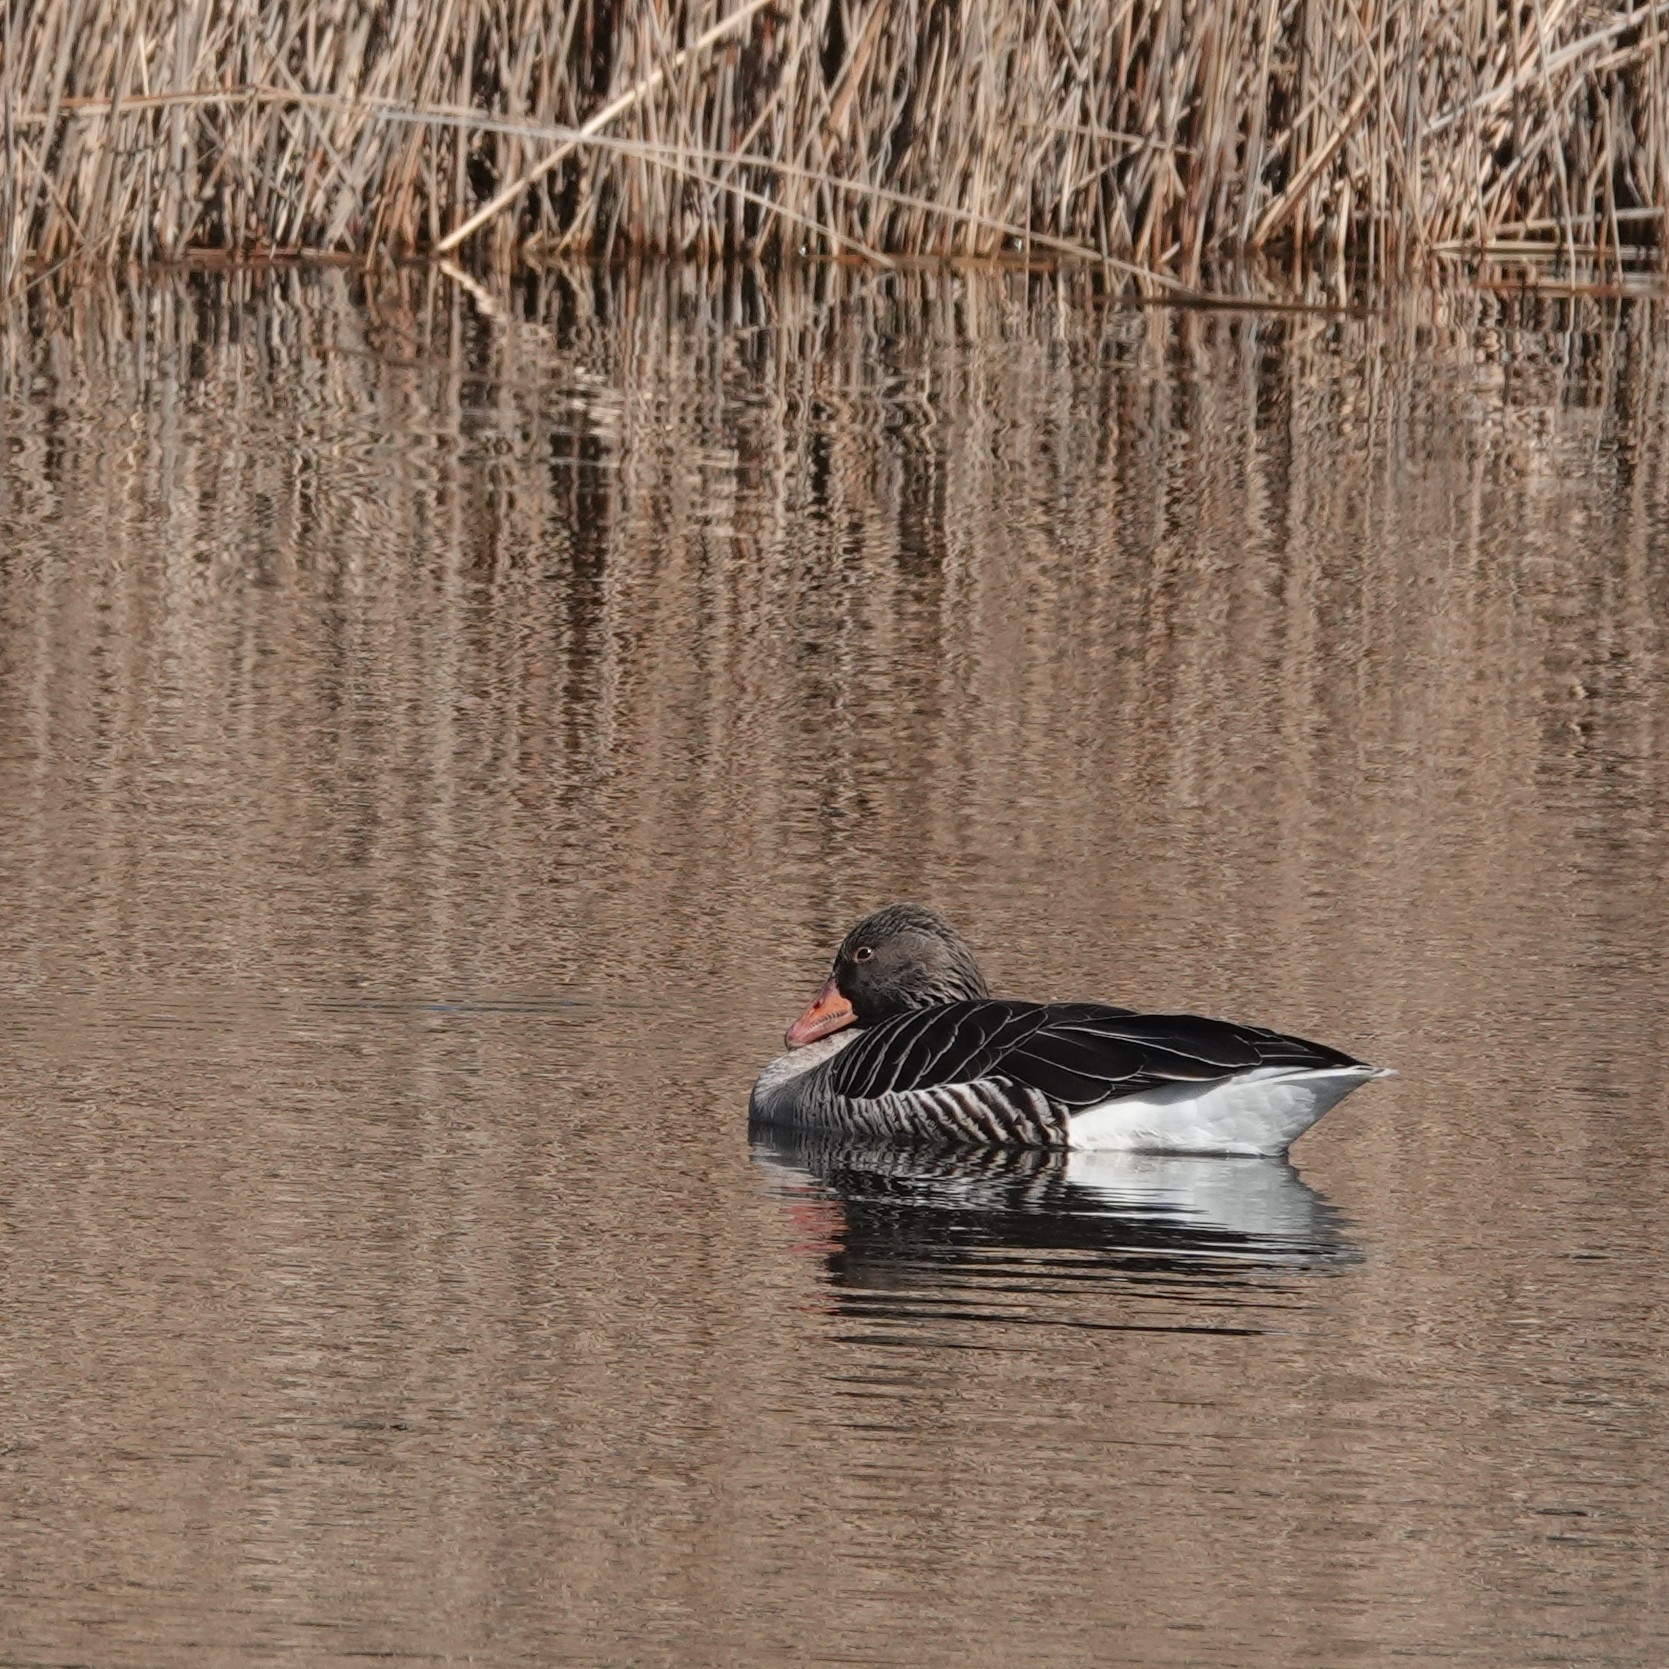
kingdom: Animalia
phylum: Chordata
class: Aves
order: Anseriformes
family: Anatidae
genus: Anser
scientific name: Anser anser
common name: Greylag goose
